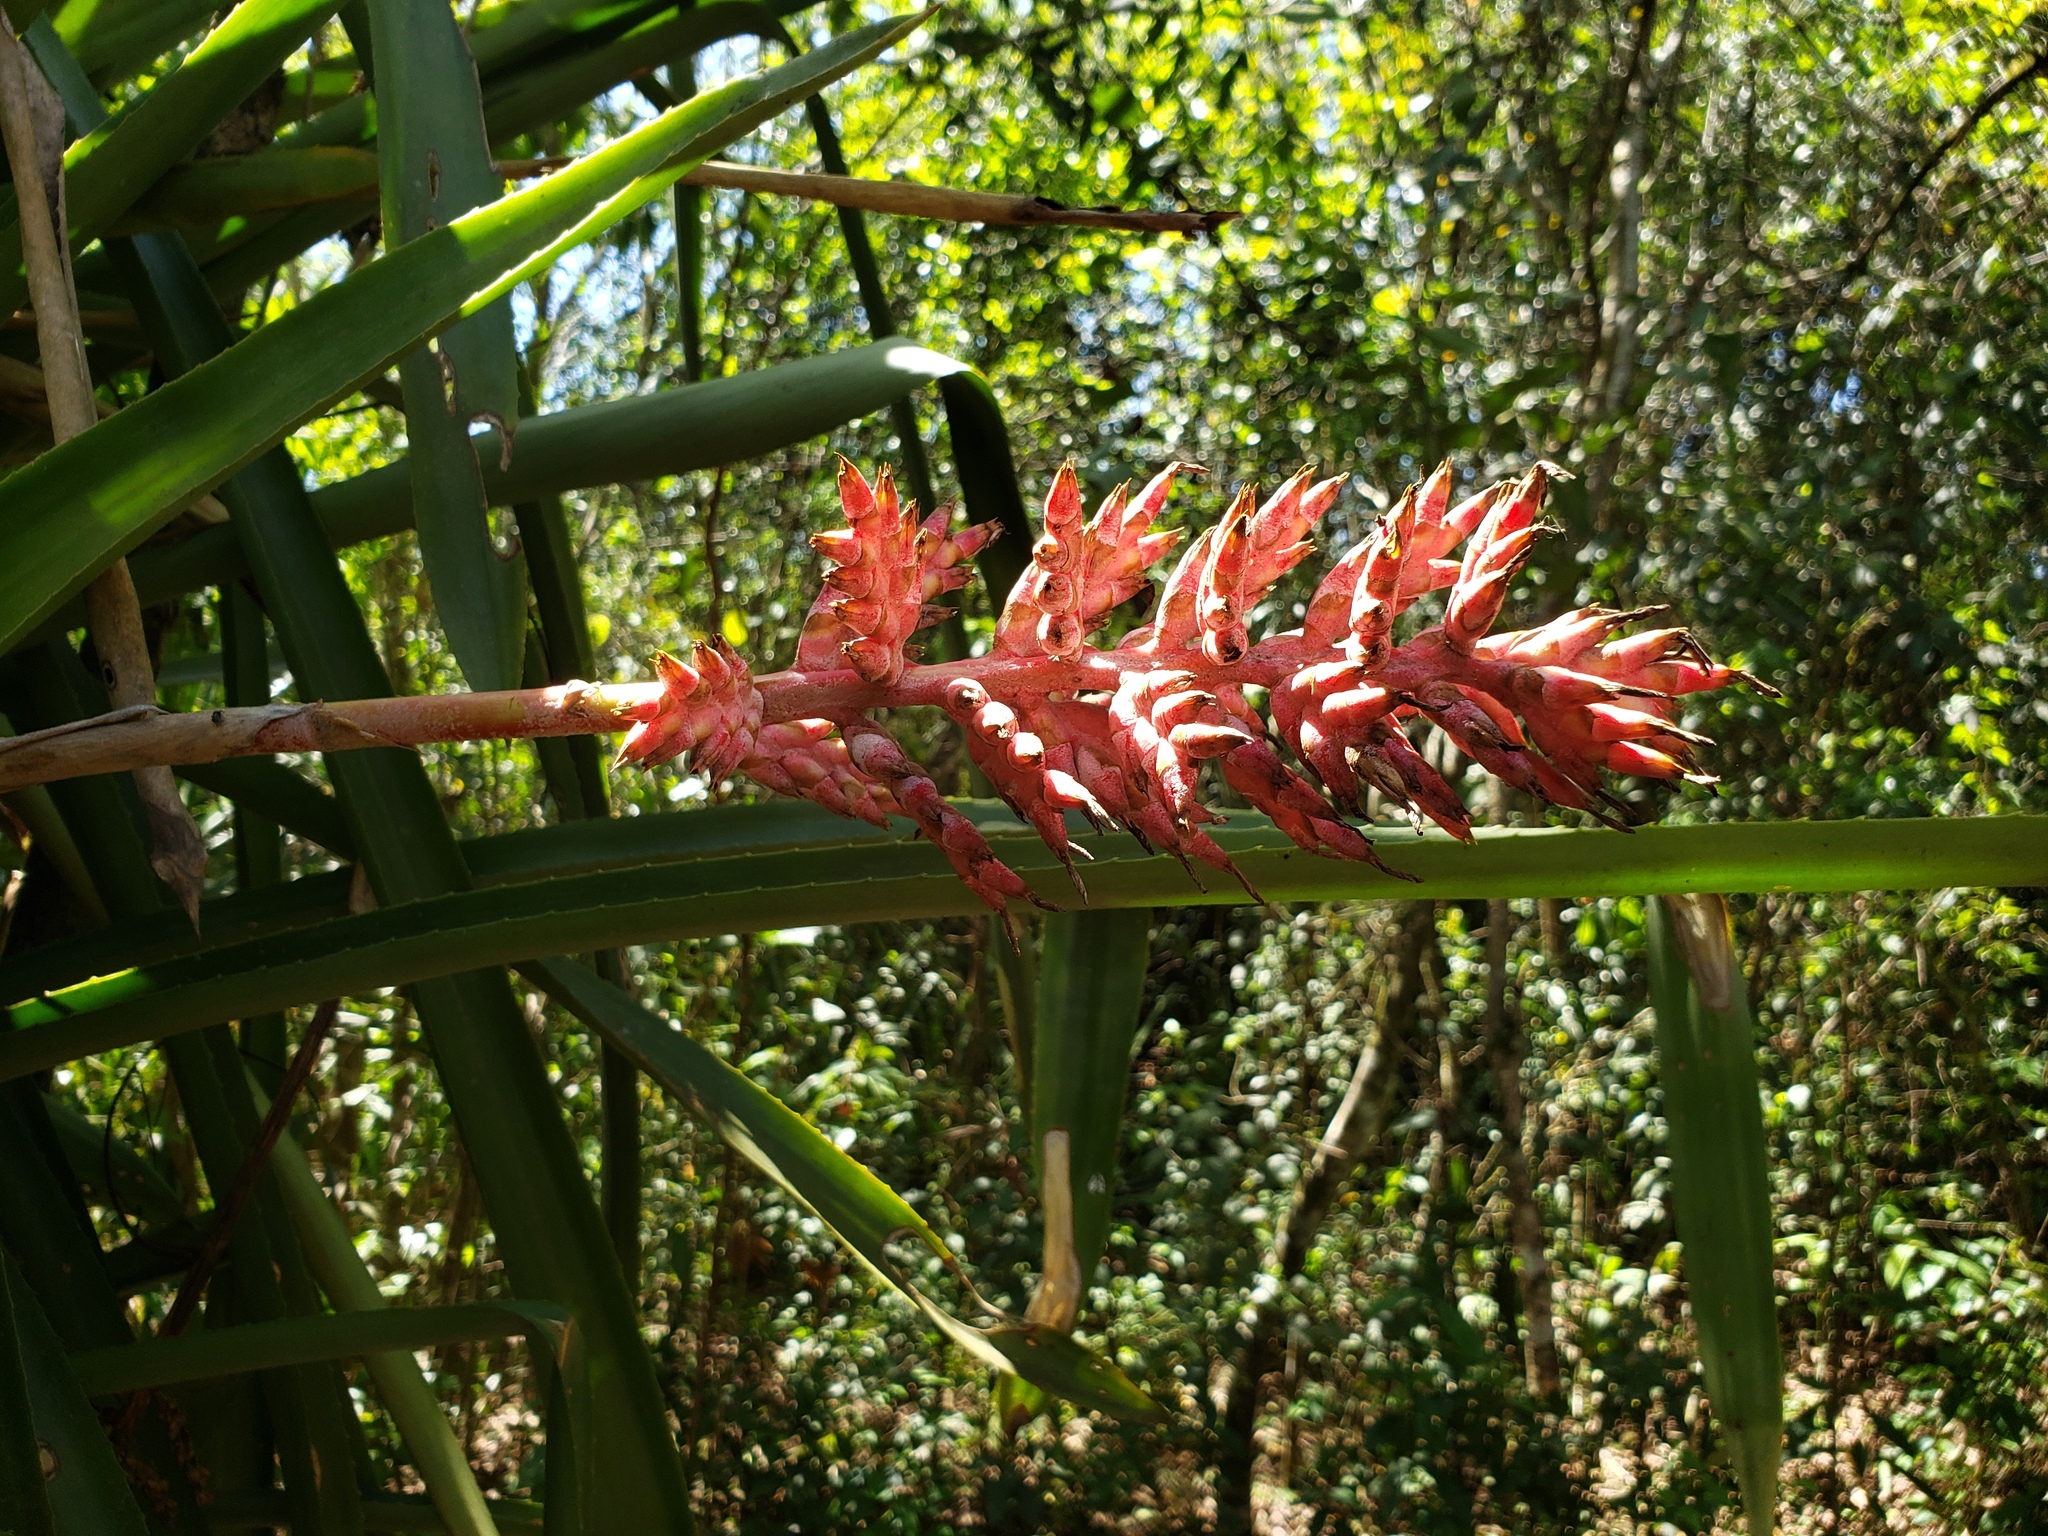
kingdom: Plantae
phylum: Tracheophyta
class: Liliopsida
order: Poales
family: Bromeliaceae
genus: Aechmea
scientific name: Aechmea distichantha
